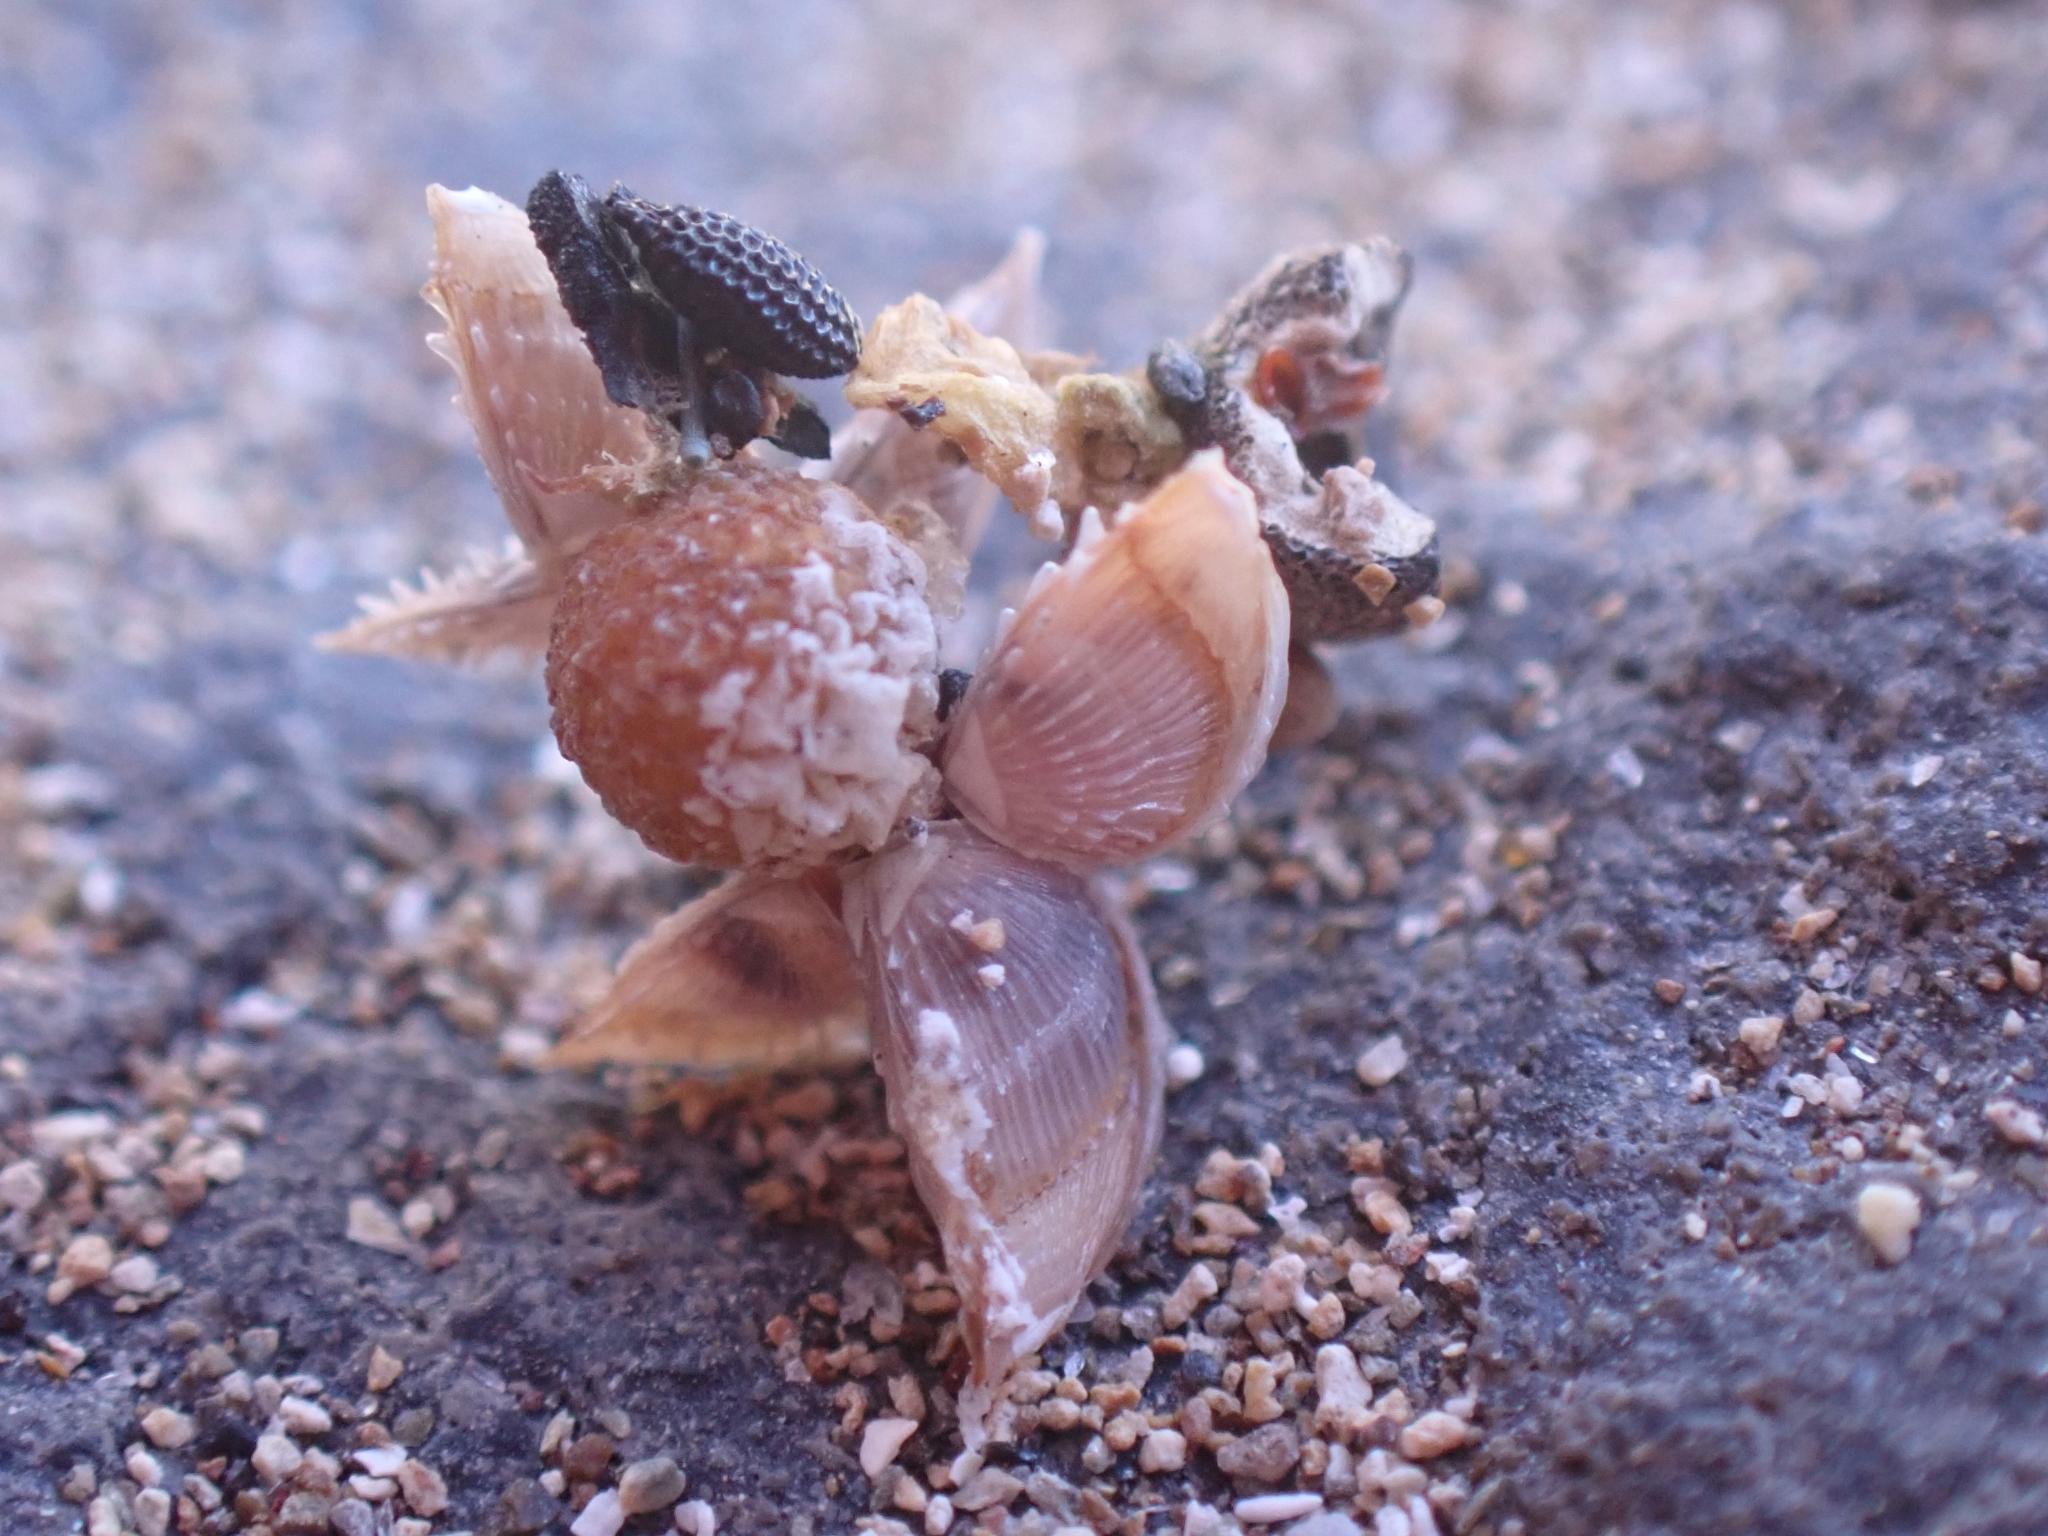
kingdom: Animalia
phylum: Arthropoda
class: Maxillopoda
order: Pedunculata
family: Lepadidae
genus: Lepas
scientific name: Lepas pectinata
